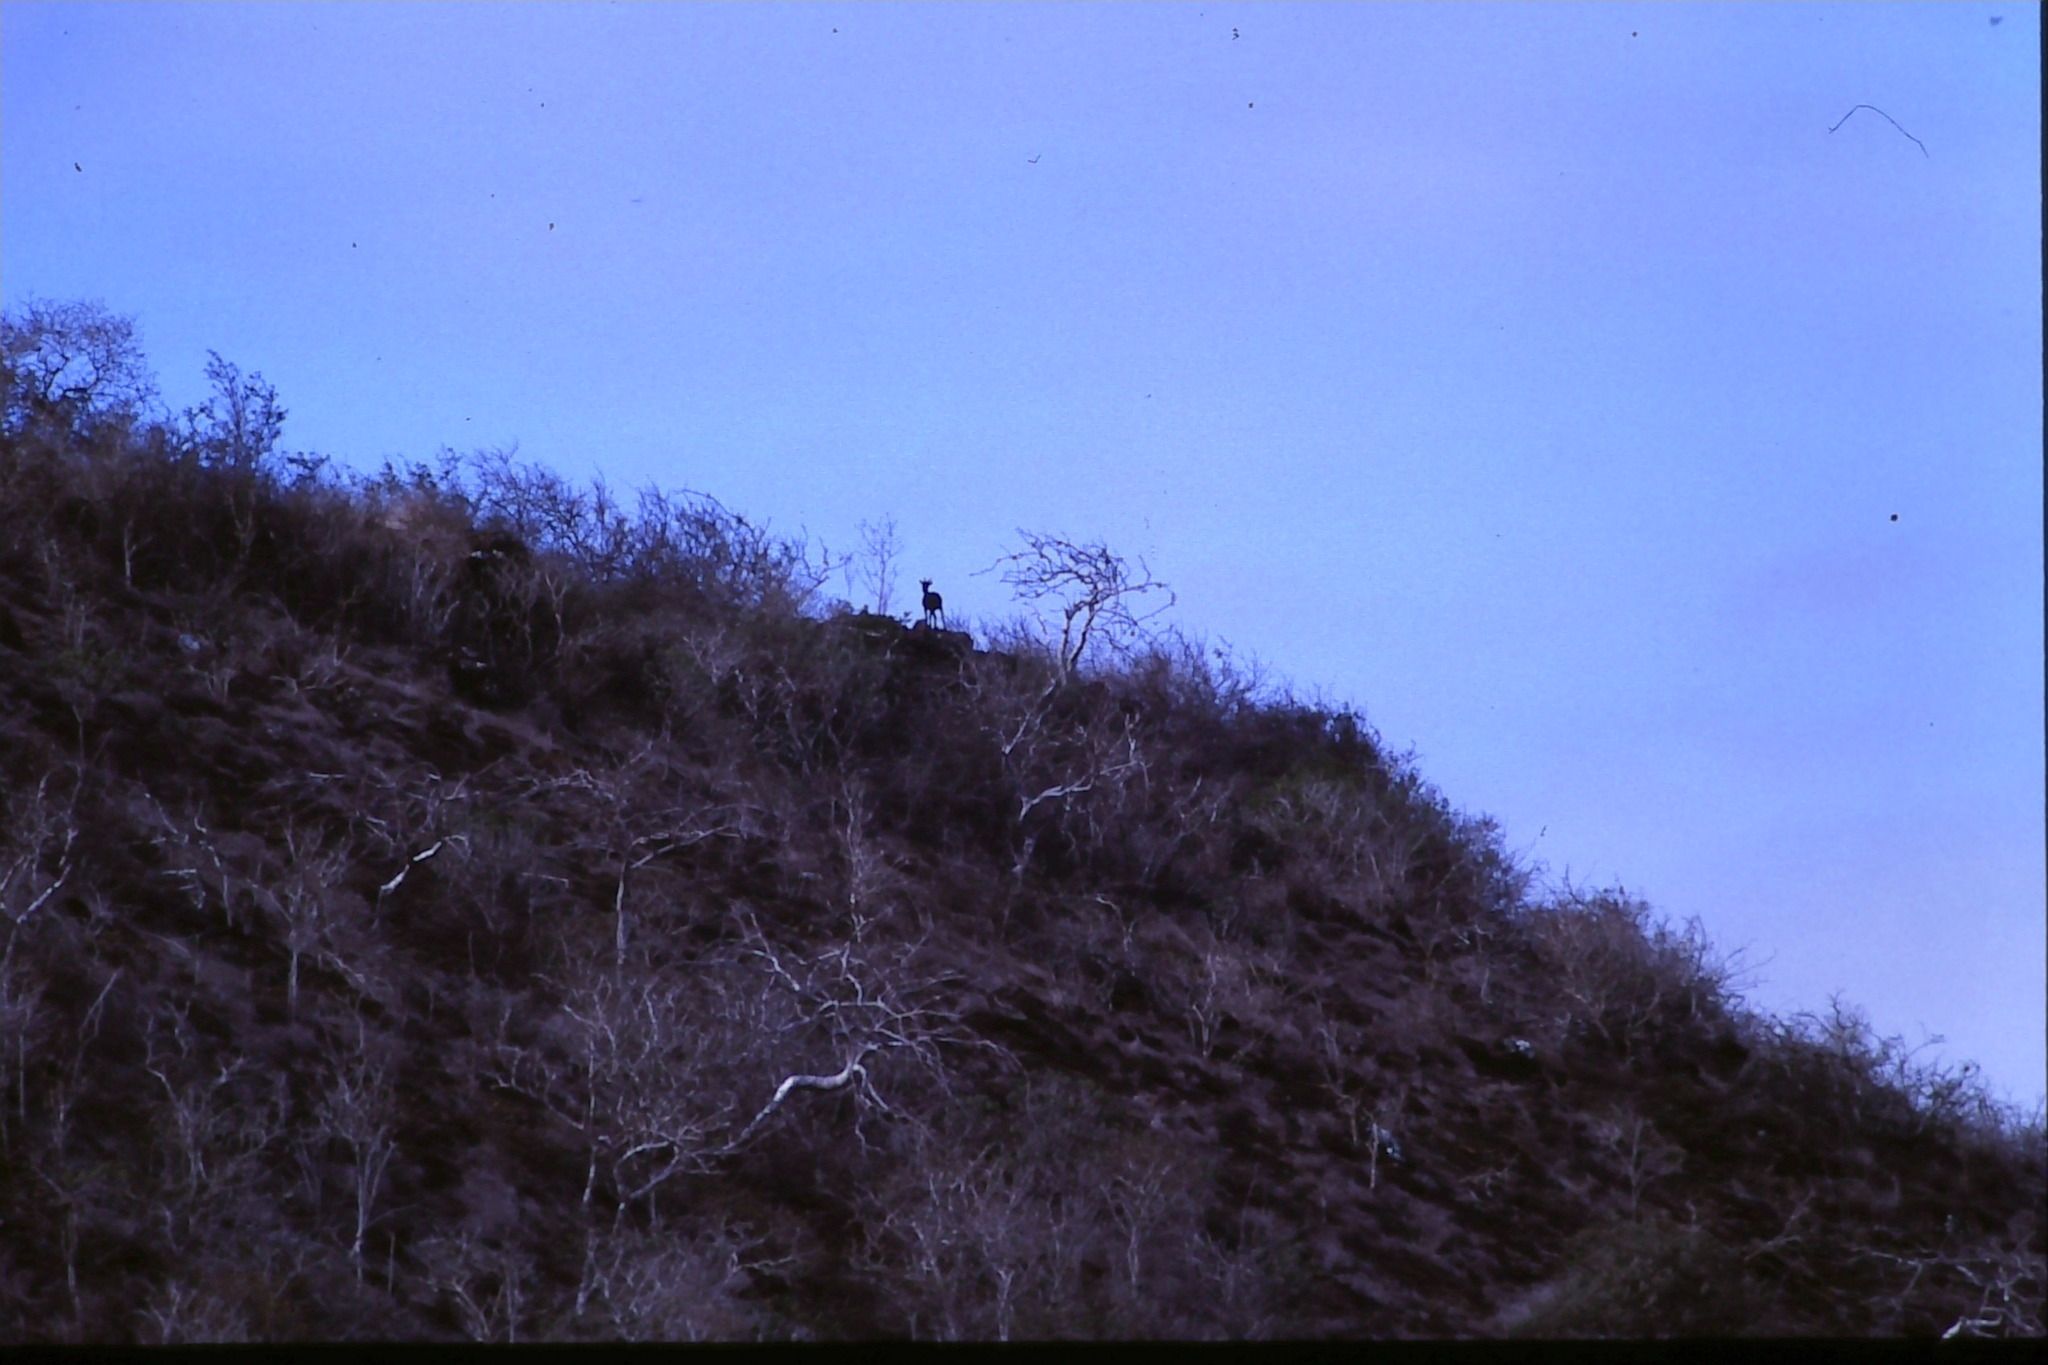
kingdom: Animalia
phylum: Chordata
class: Mammalia
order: Artiodactyla
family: Bovidae
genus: Capra
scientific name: Capra hircus
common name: Domestic goat
